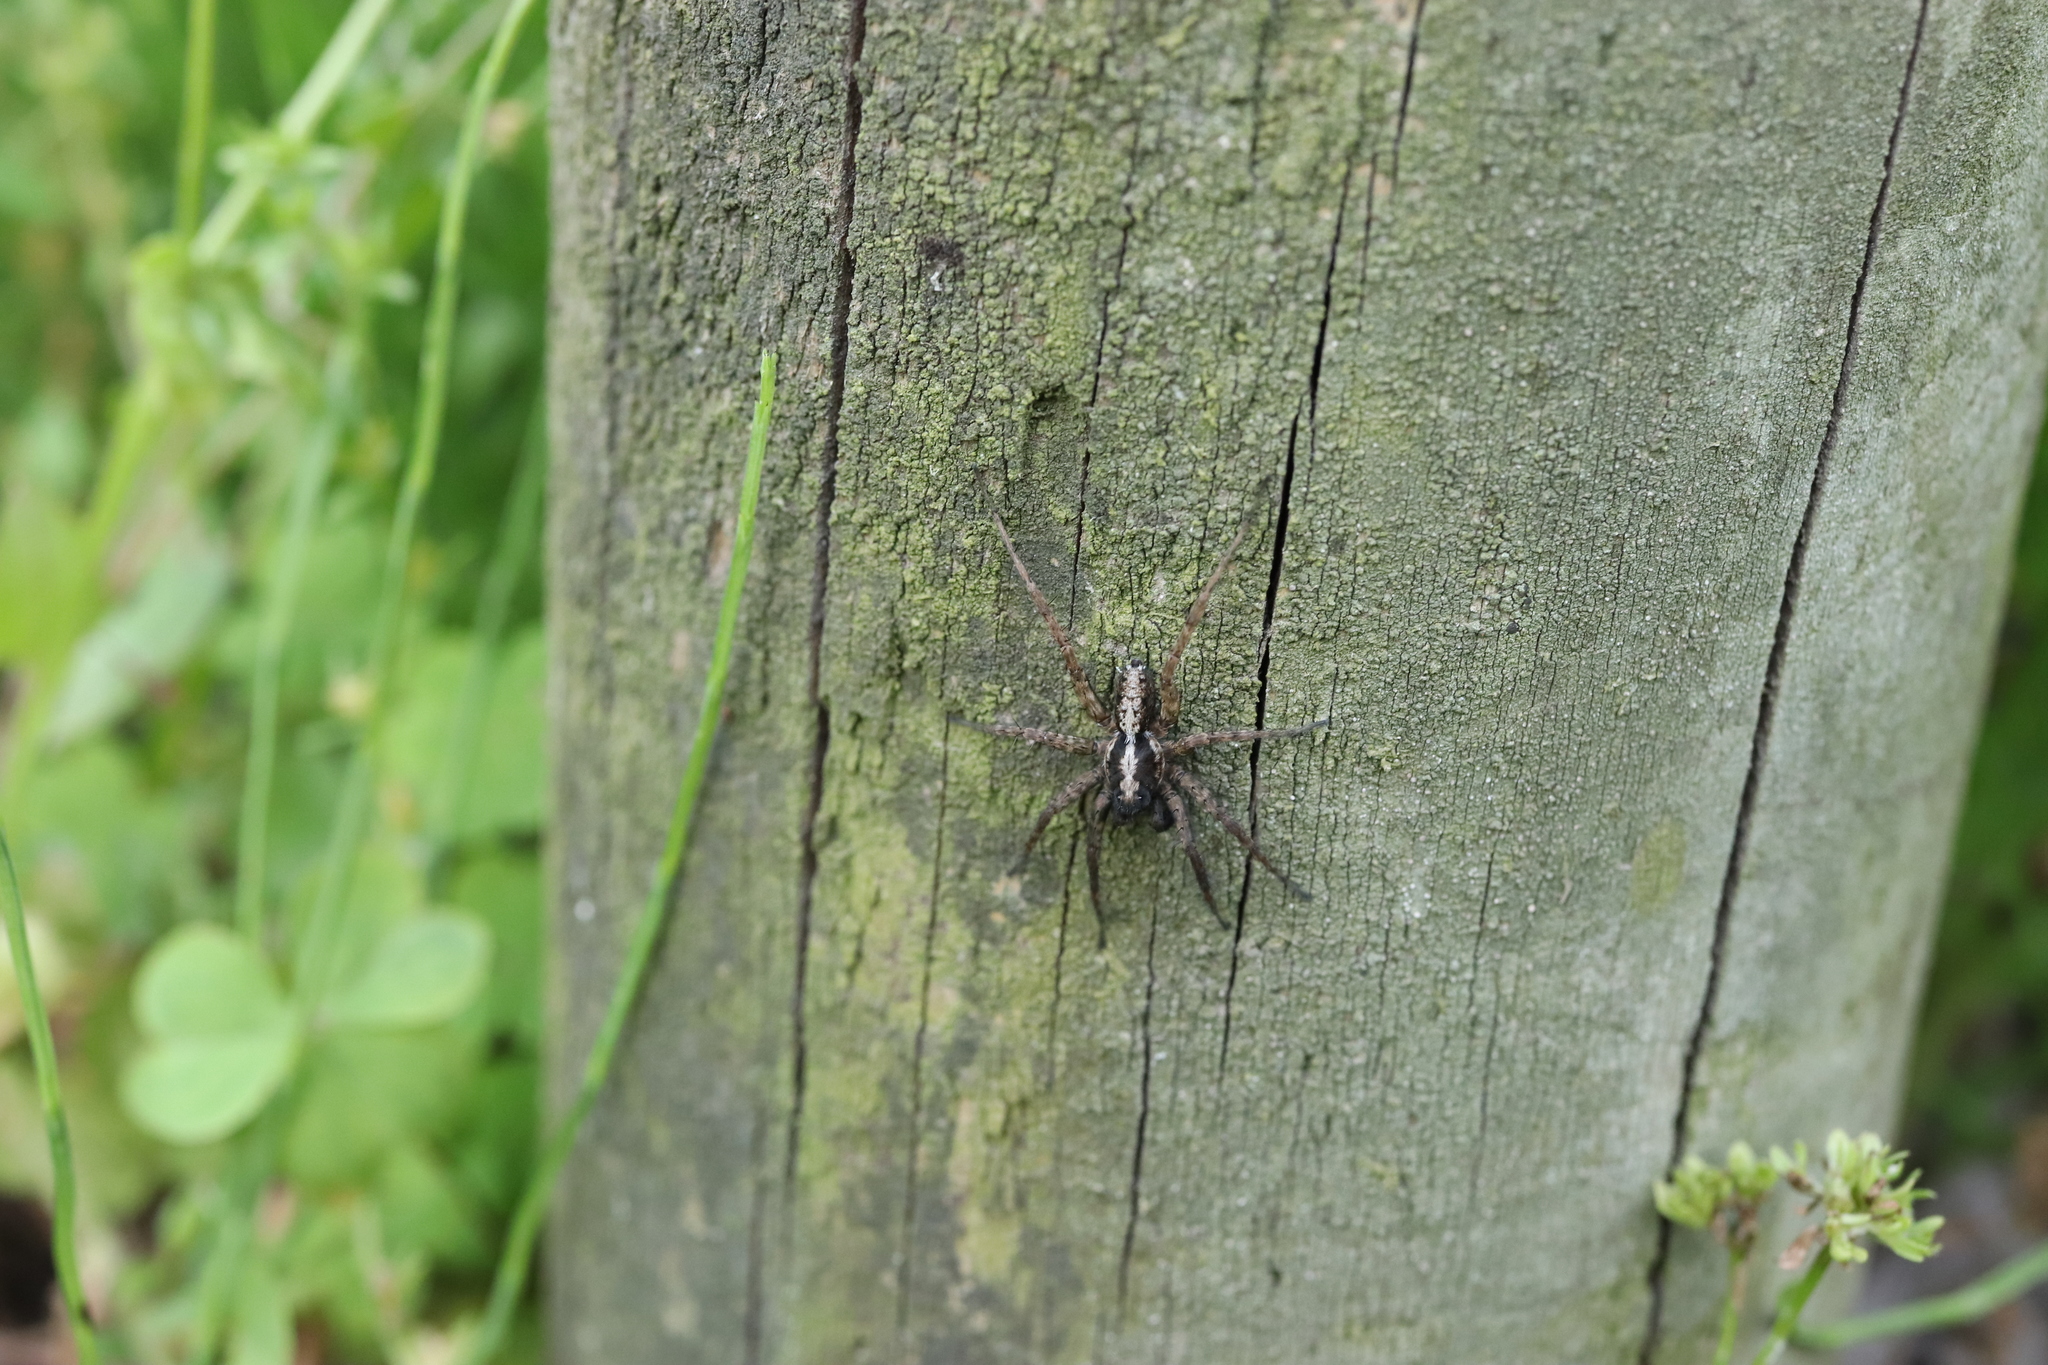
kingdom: Animalia
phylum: Arthropoda
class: Arachnida
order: Araneae
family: Lycosidae
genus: Pardosa
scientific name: Pardosa astrigera
